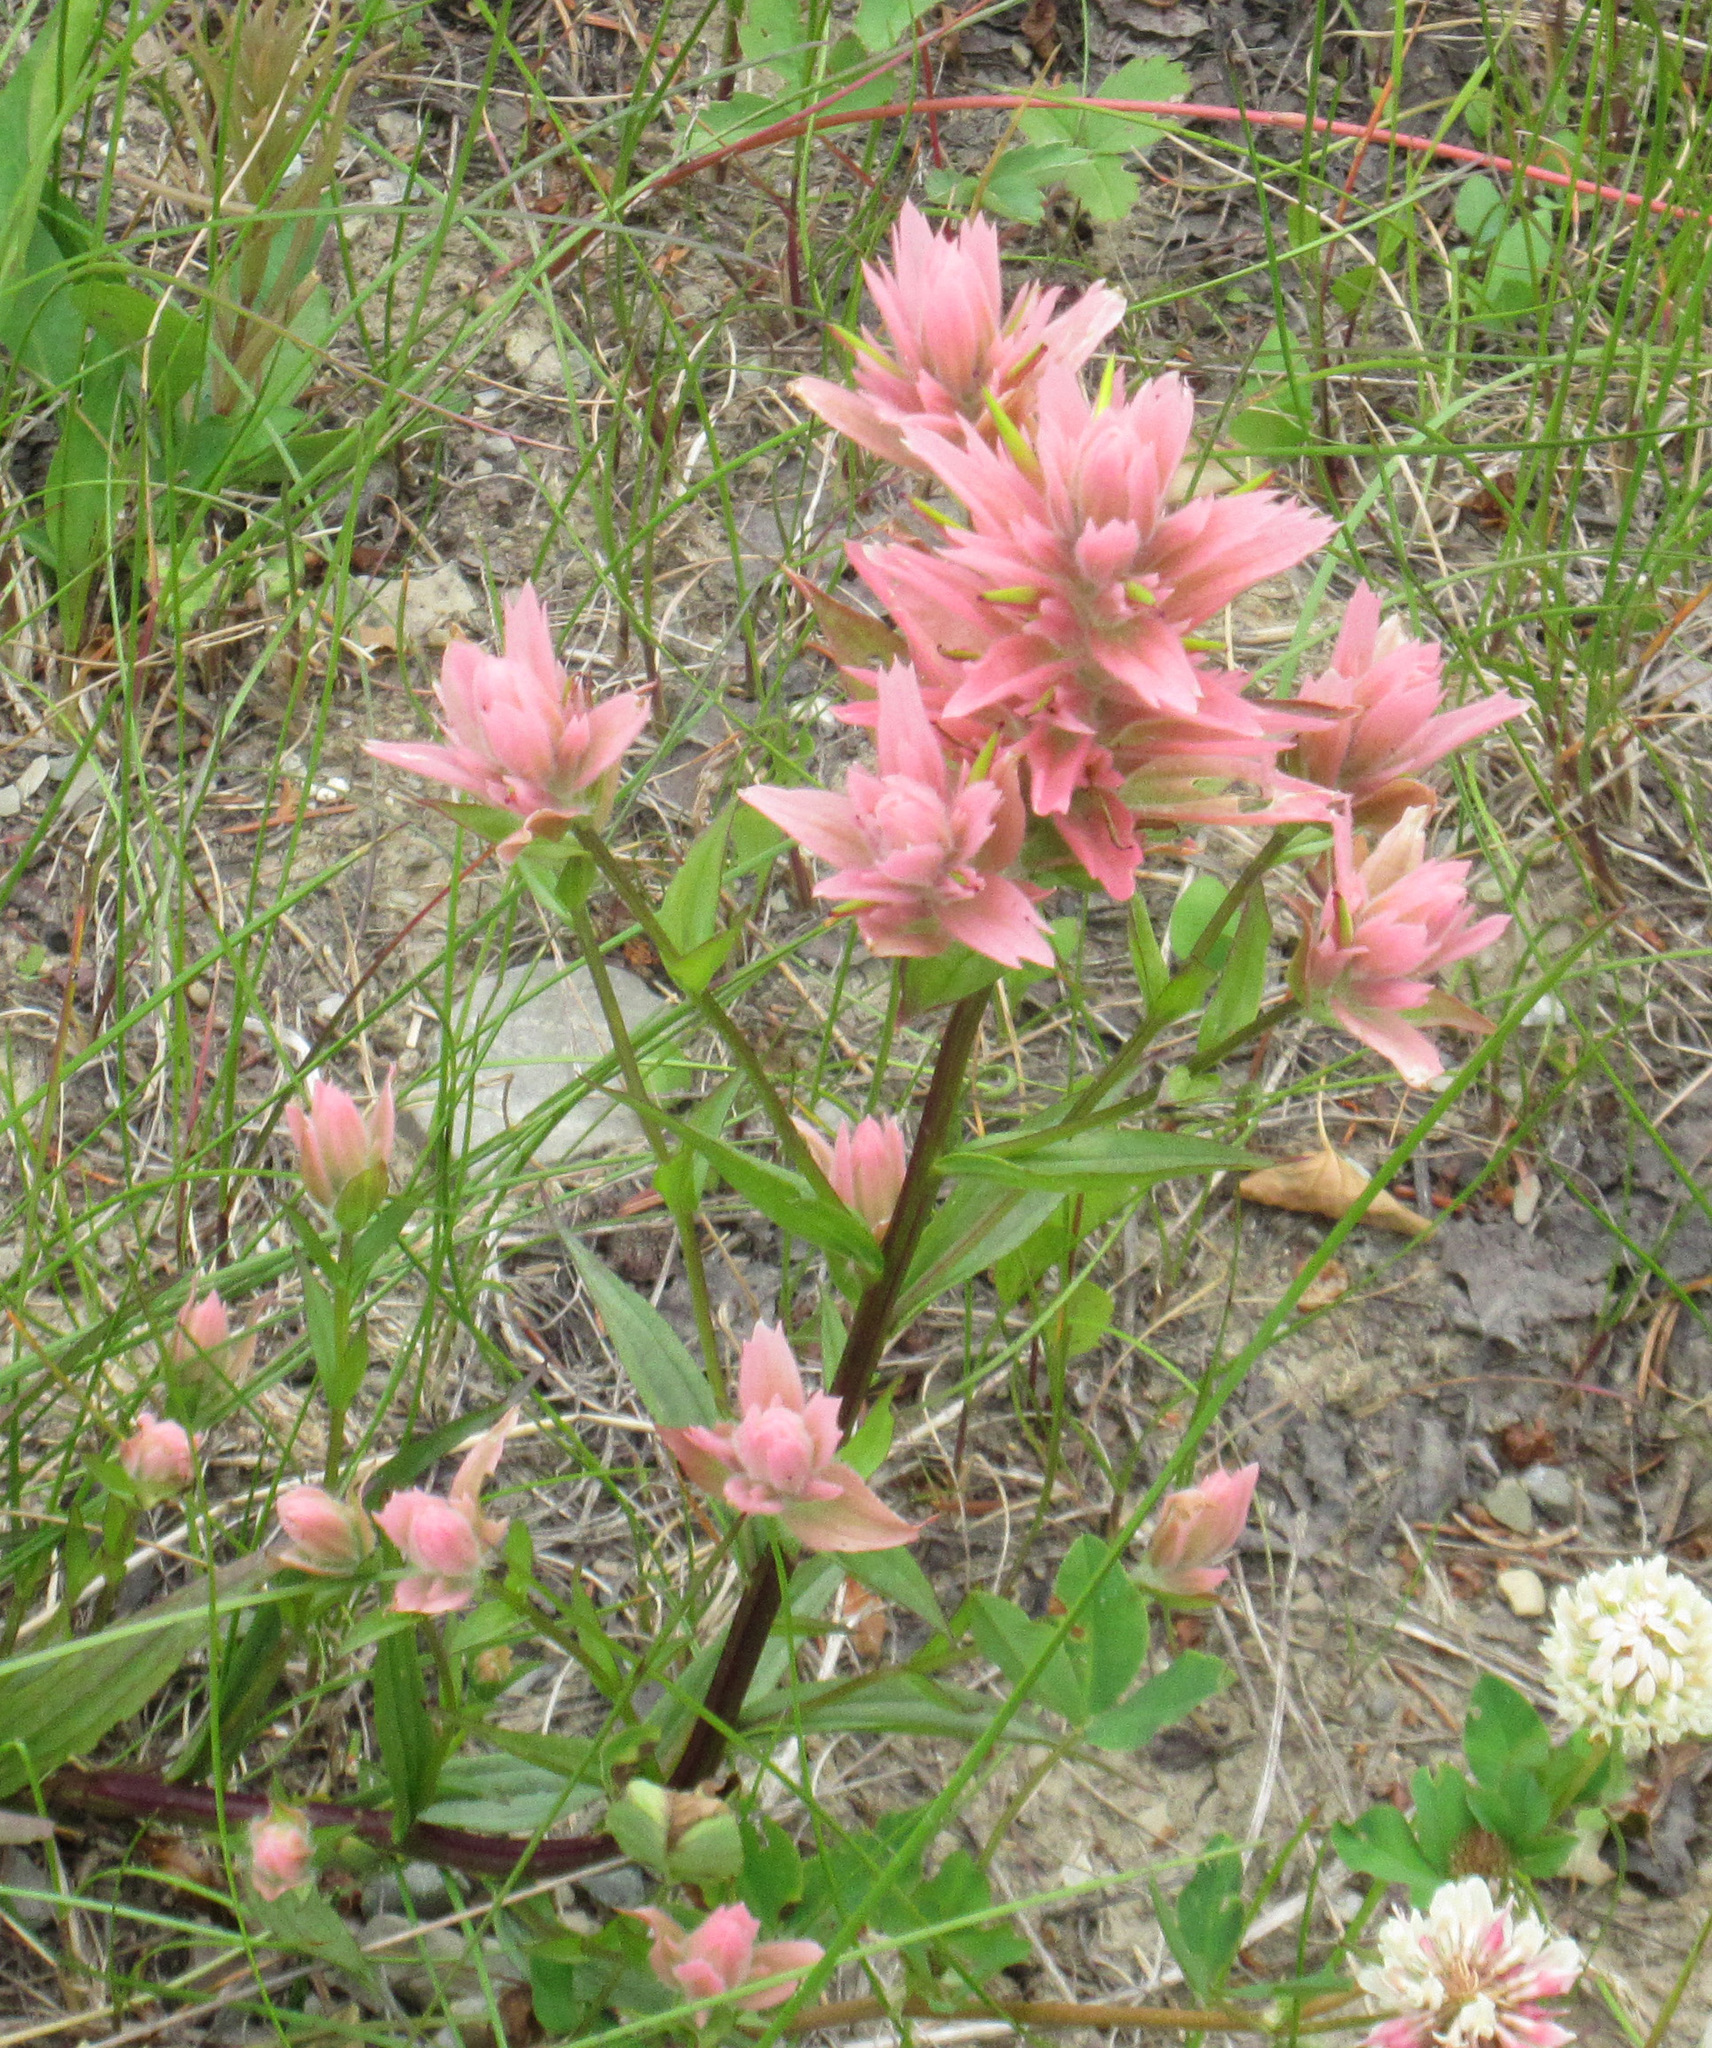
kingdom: Plantae
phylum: Tracheophyta
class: Magnoliopsida
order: Lamiales
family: Orobanchaceae
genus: Castilleja
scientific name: Castilleja miniata
